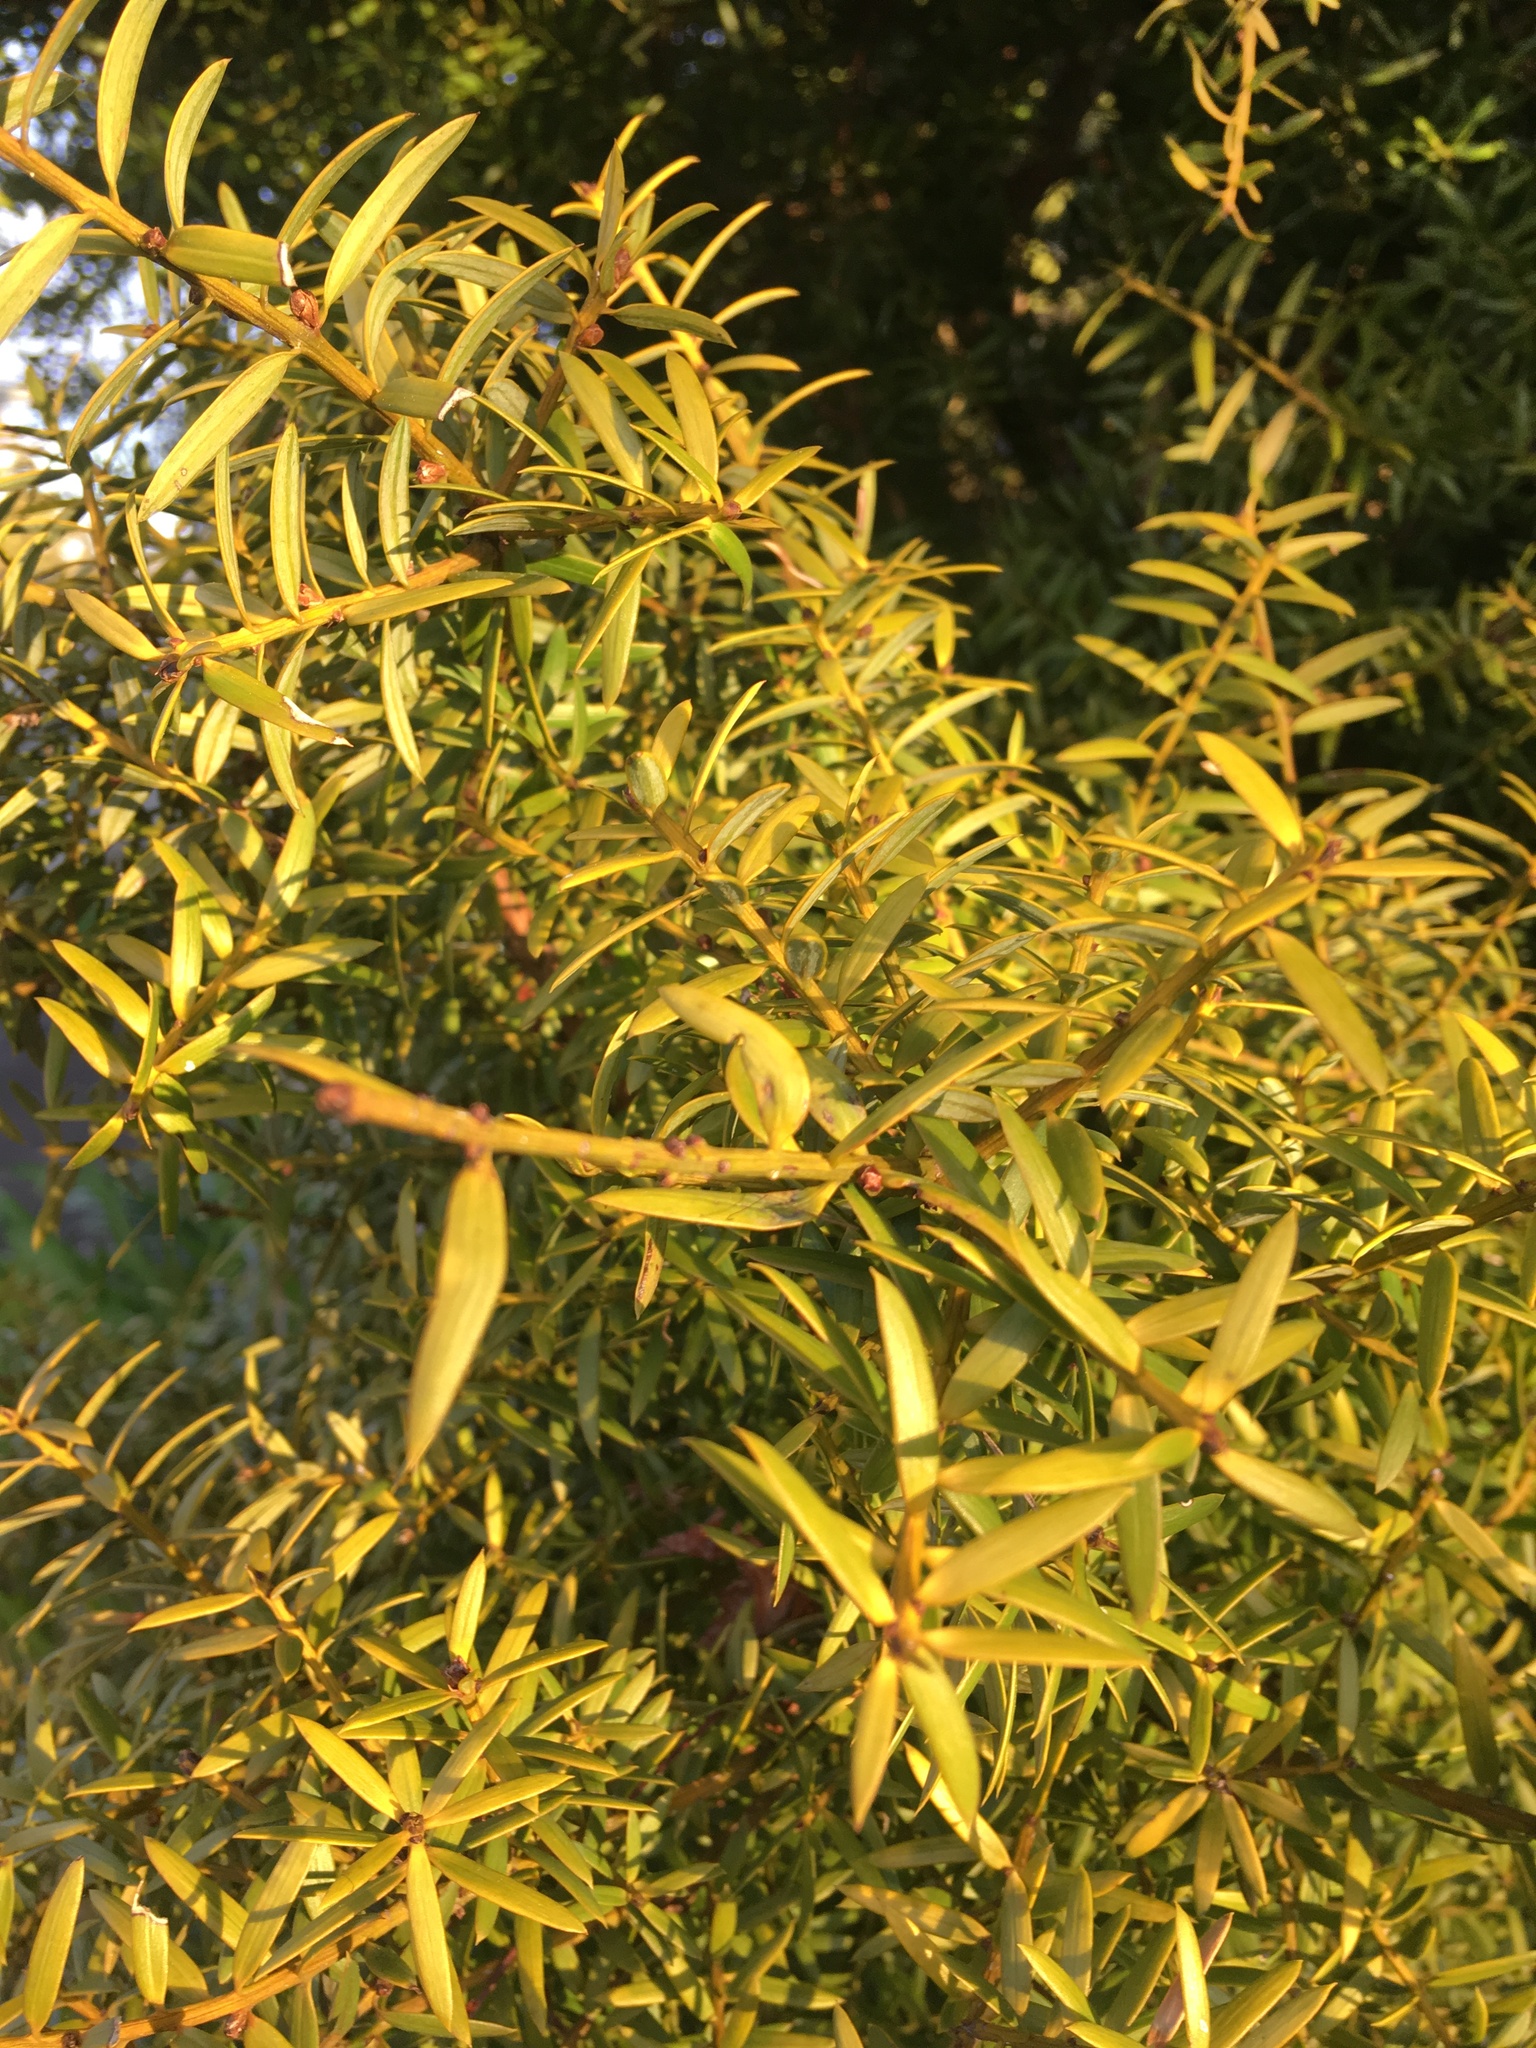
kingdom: Plantae
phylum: Tracheophyta
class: Pinopsida
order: Pinales
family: Podocarpaceae
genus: Podocarpus
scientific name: Podocarpus totara
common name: Totara
